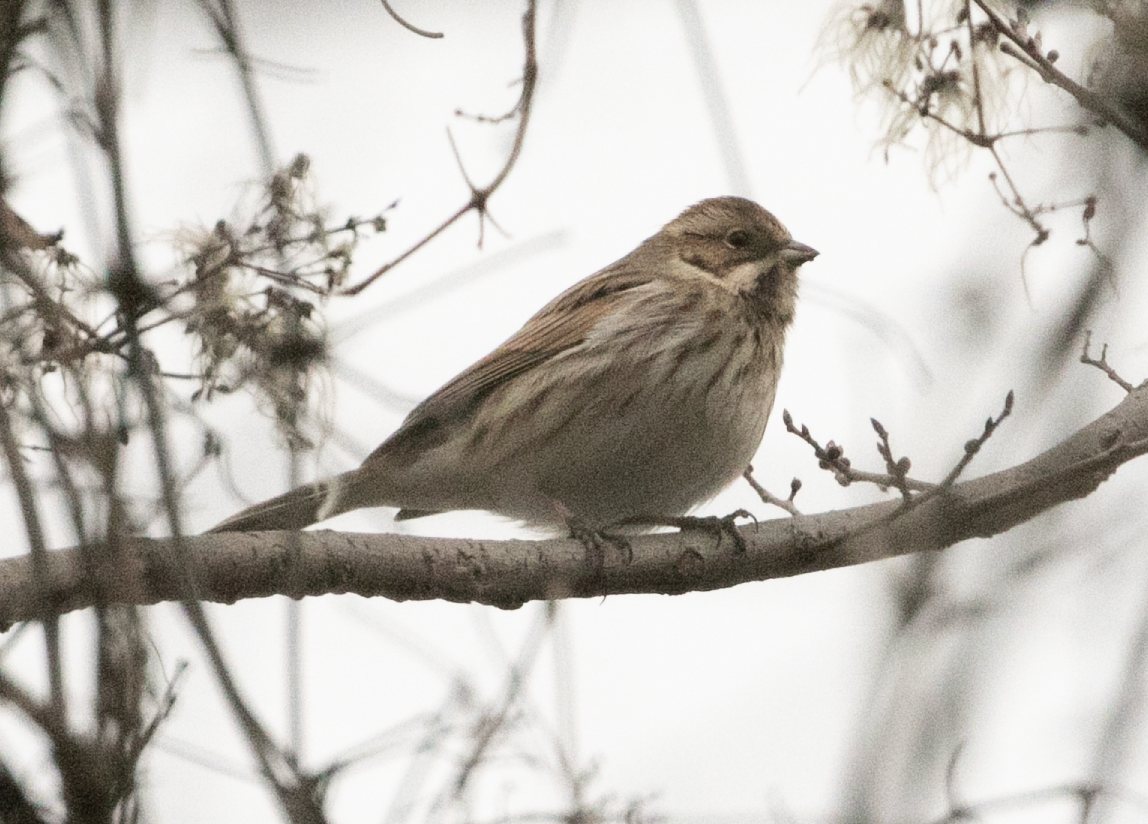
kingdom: Animalia
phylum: Chordata
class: Aves
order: Passeriformes
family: Emberizidae
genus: Emberiza
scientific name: Emberiza schoeniclus
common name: Reed bunting
